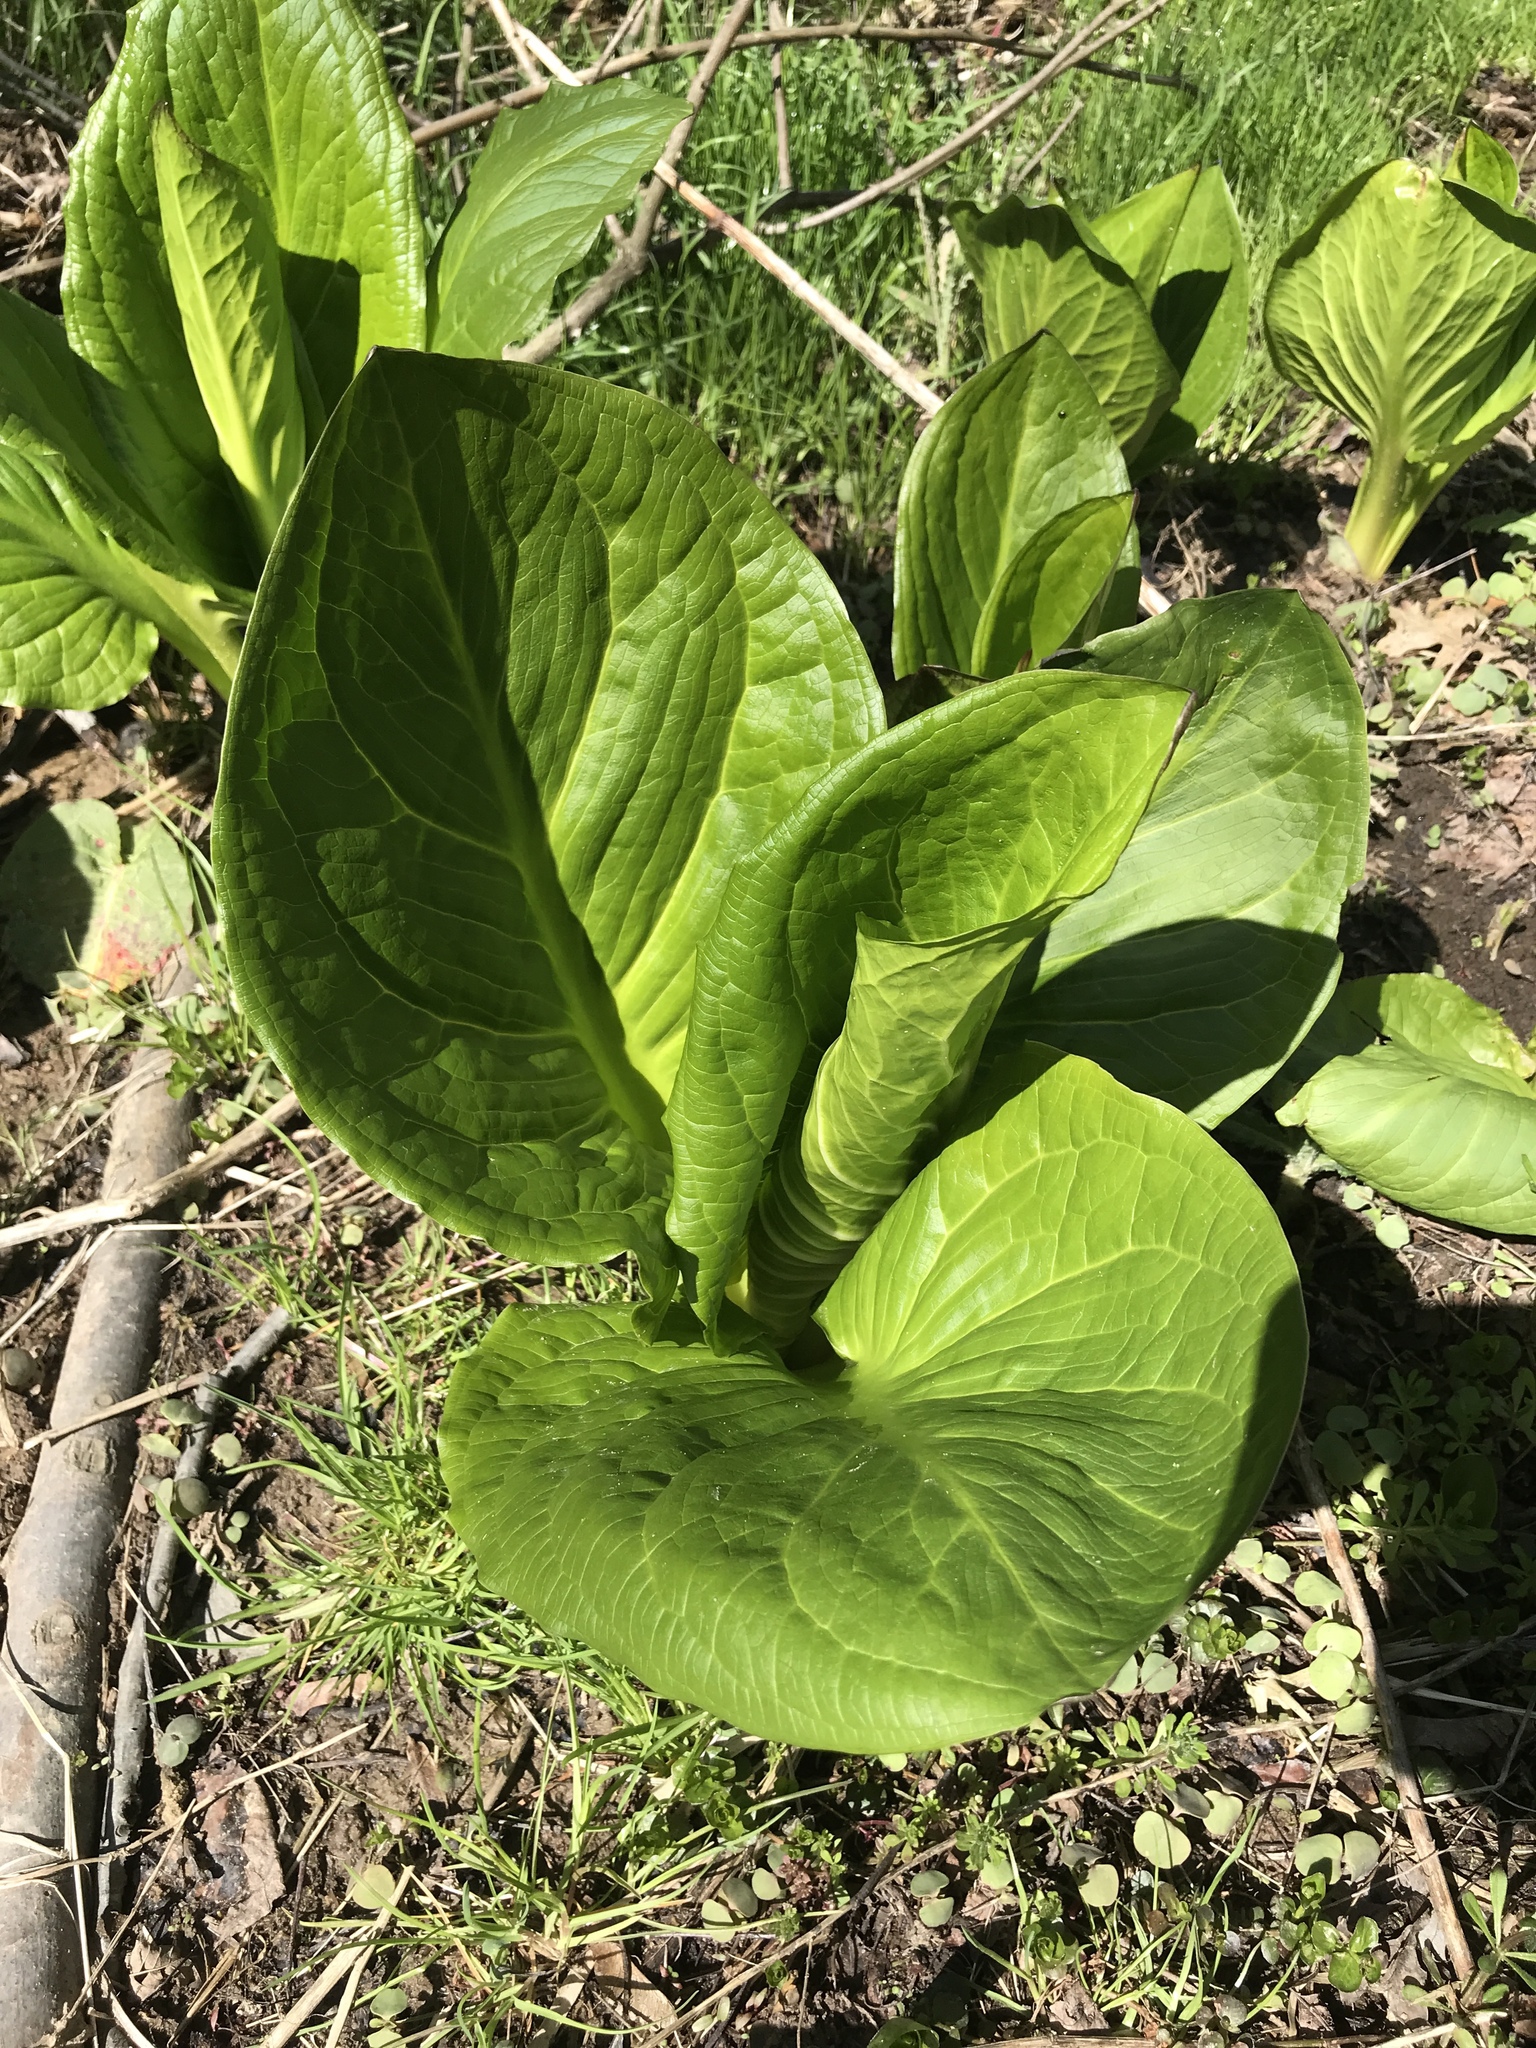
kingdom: Plantae
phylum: Tracheophyta
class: Liliopsida
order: Alismatales
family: Araceae
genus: Symplocarpus
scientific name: Symplocarpus foetidus
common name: Eastern skunk cabbage
